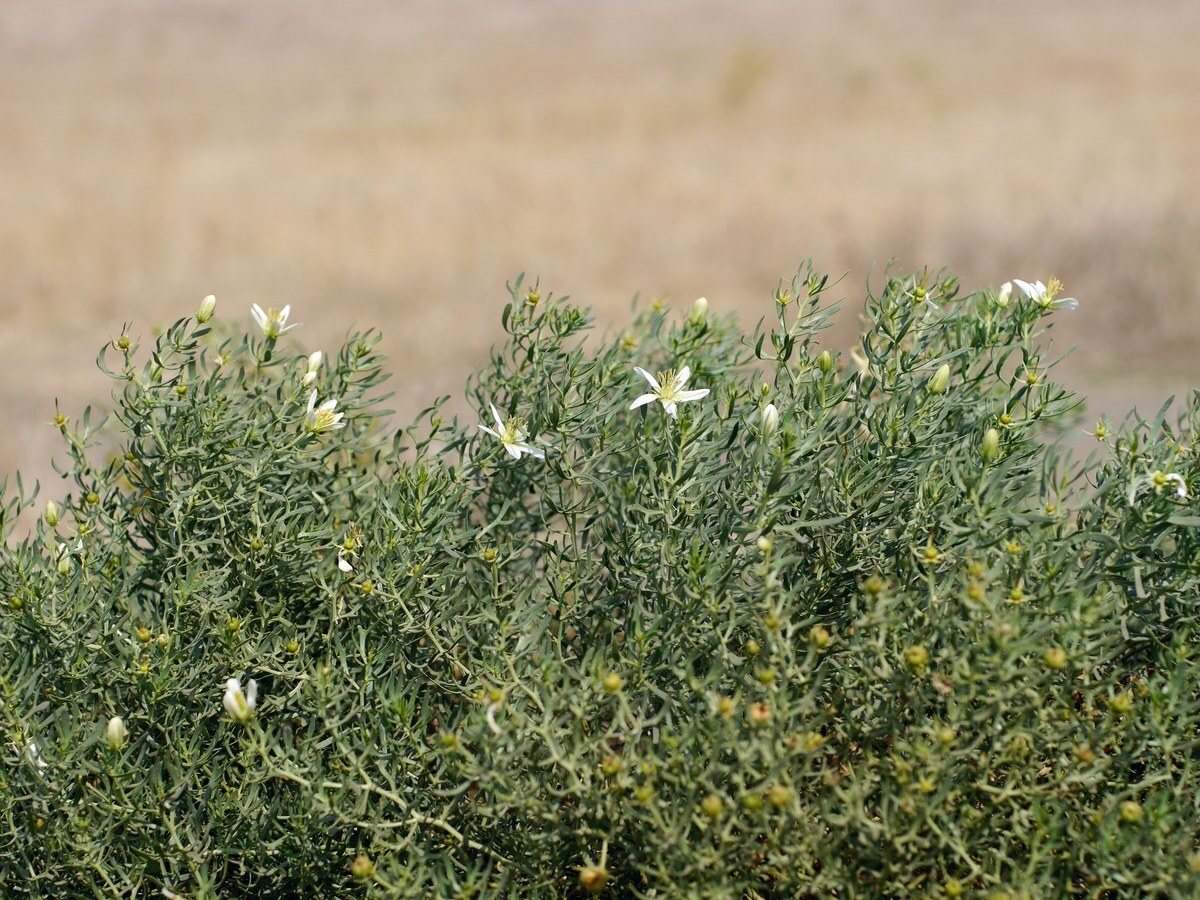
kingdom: Plantae
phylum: Tracheophyta
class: Magnoliopsida
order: Sapindales
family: Tetradiclidaceae
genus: Peganum
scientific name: Peganum harmala
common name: Harmal peganum
